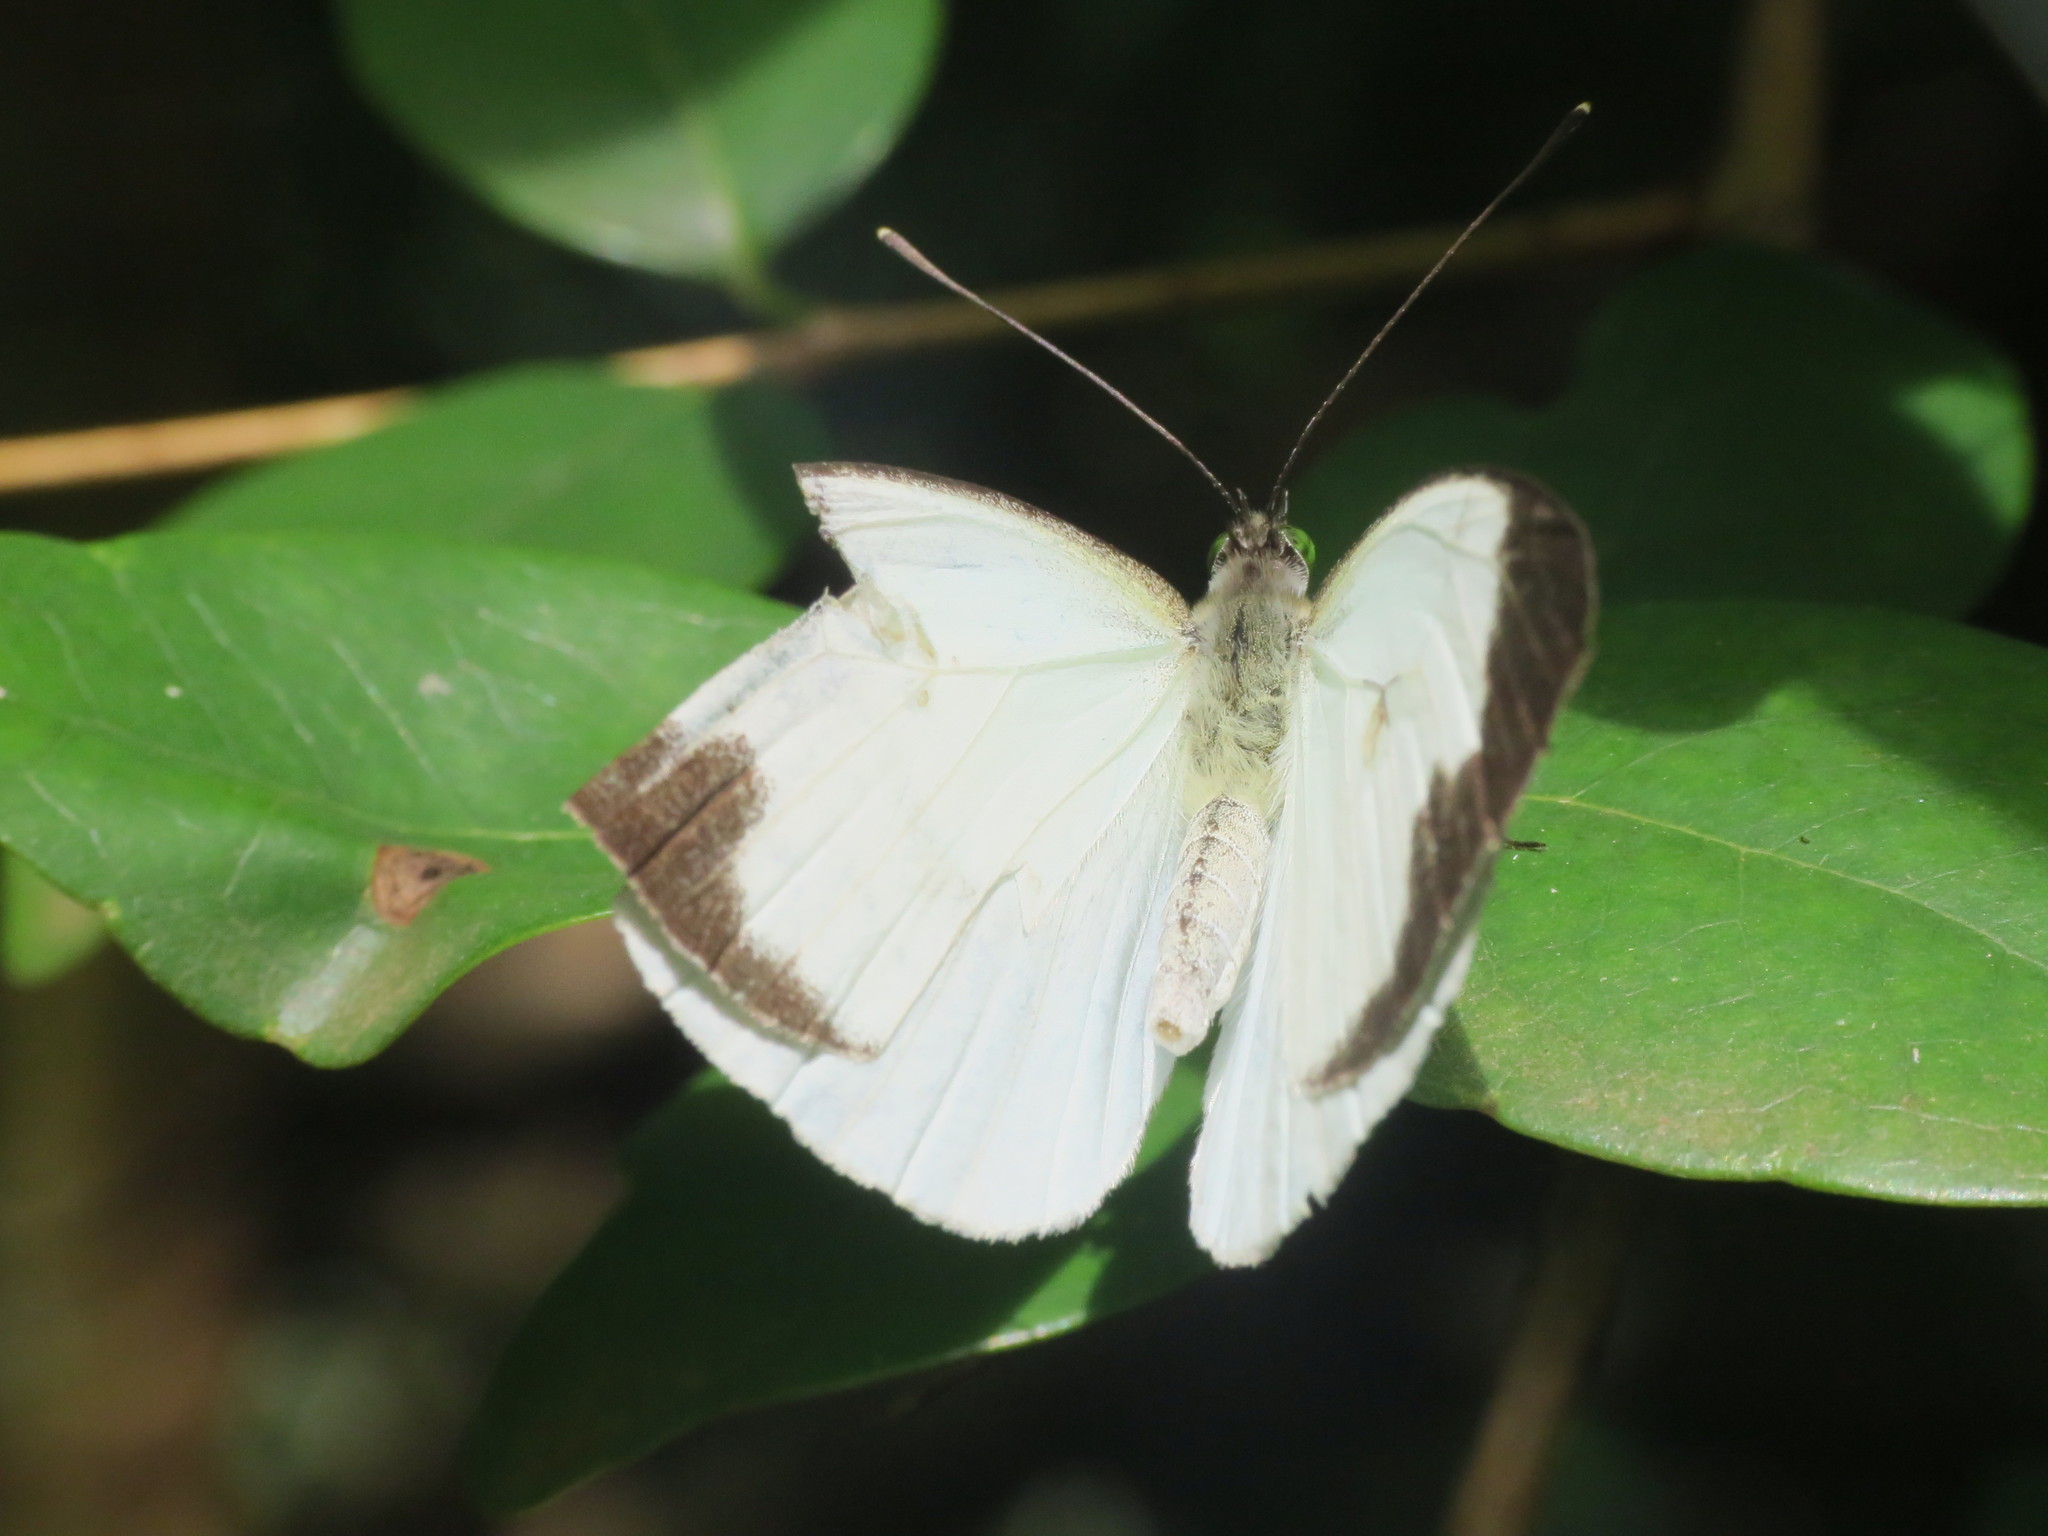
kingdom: Animalia
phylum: Arthropoda
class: Insecta
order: Lepidoptera
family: Pieridae
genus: Leptophobia
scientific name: Leptophobia aripa
